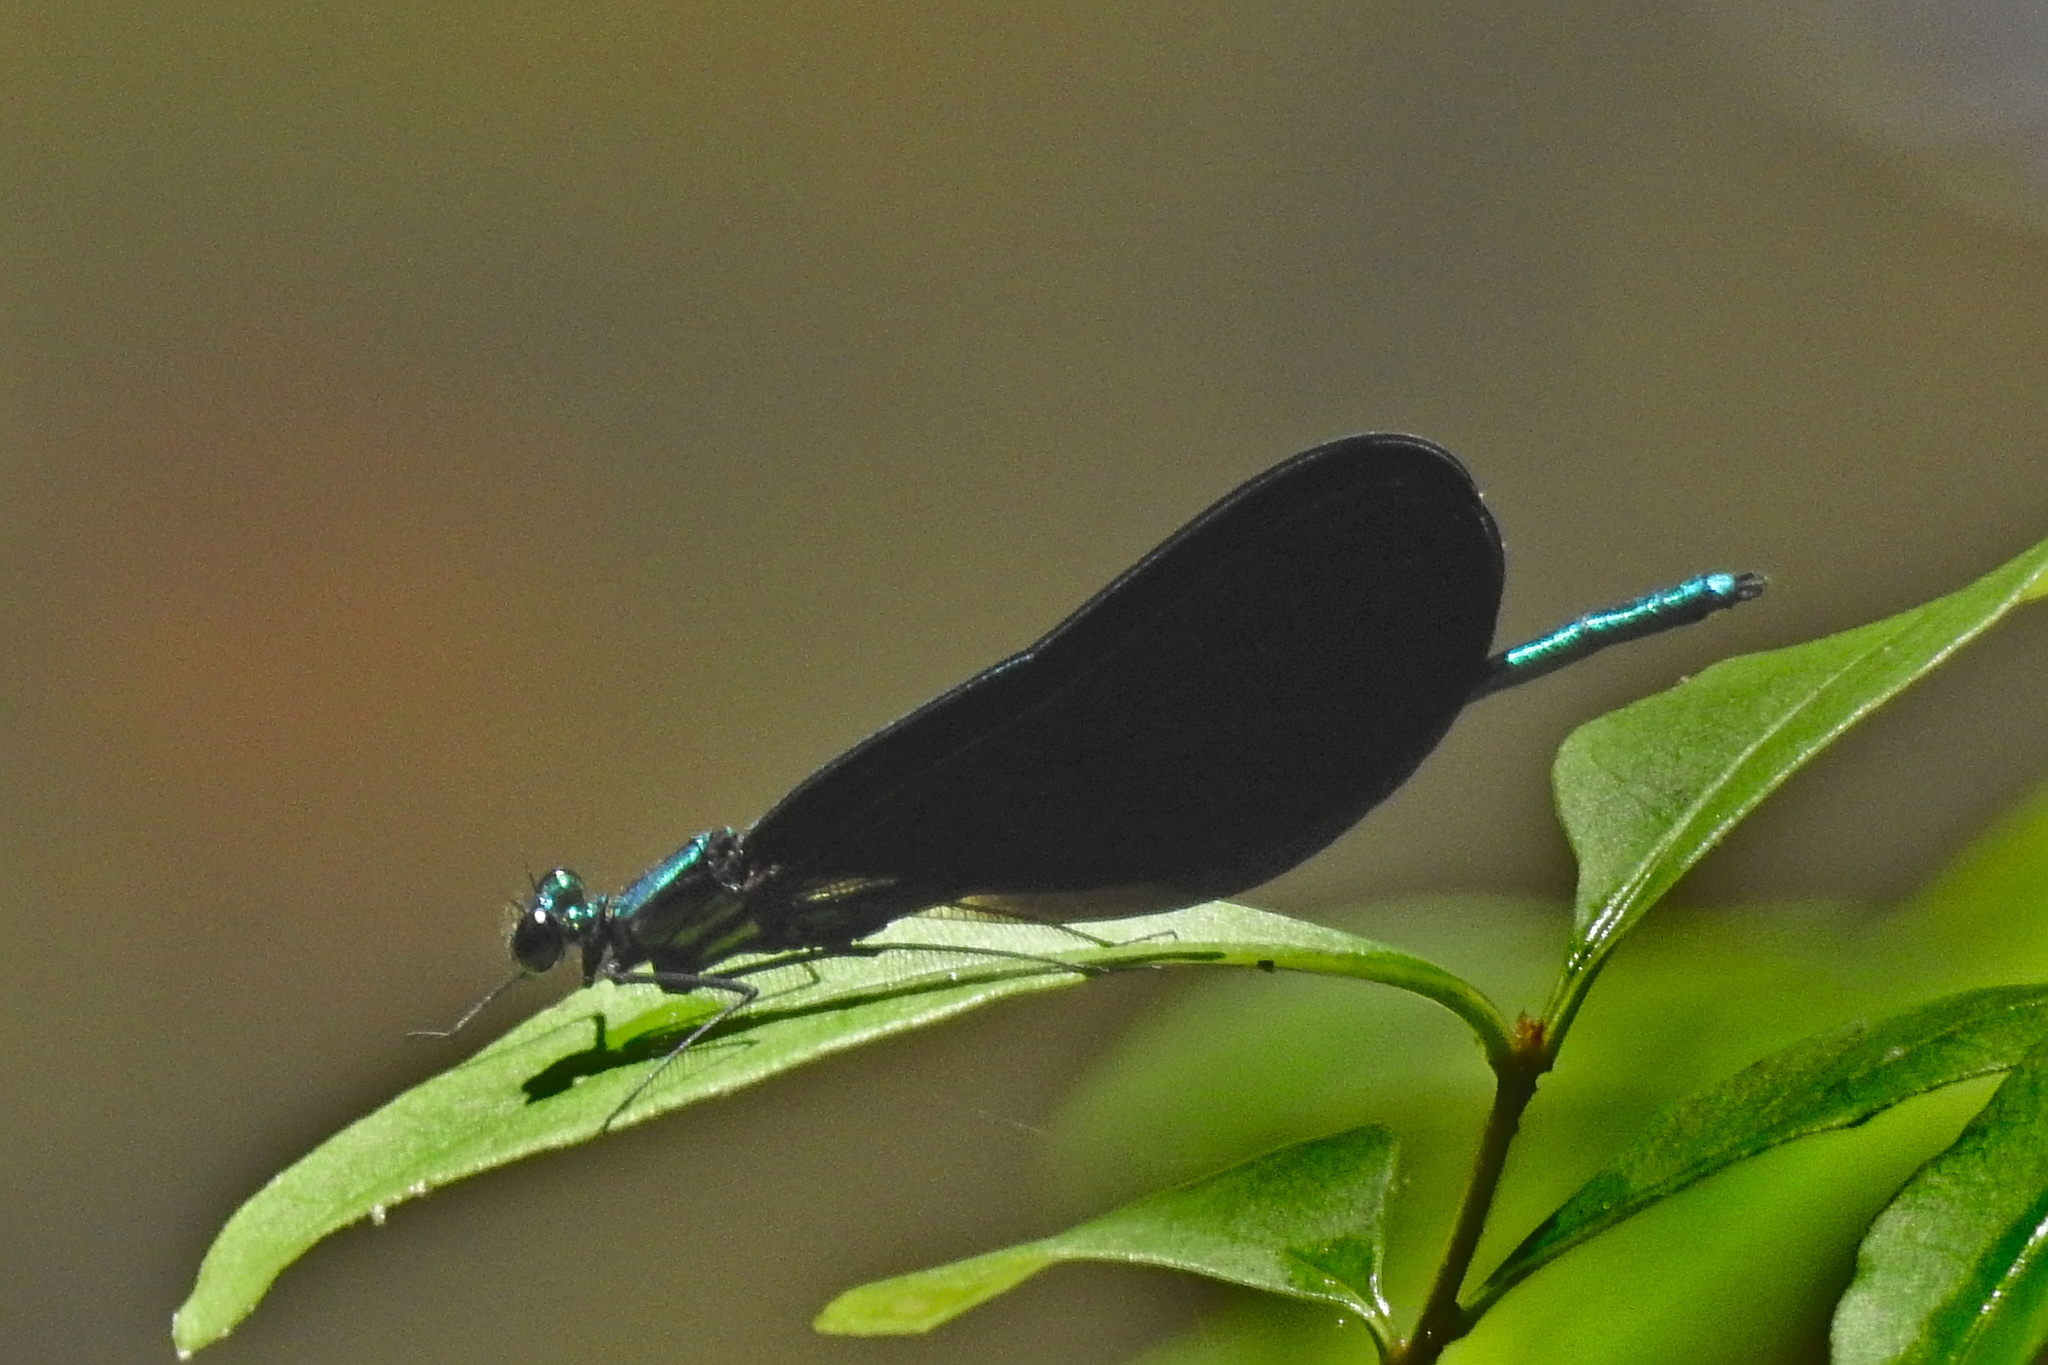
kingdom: Animalia
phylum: Arthropoda
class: Insecta
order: Odonata
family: Calopterygidae
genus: Calopteryx
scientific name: Calopteryx maculata
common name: Ebony jewelwing
